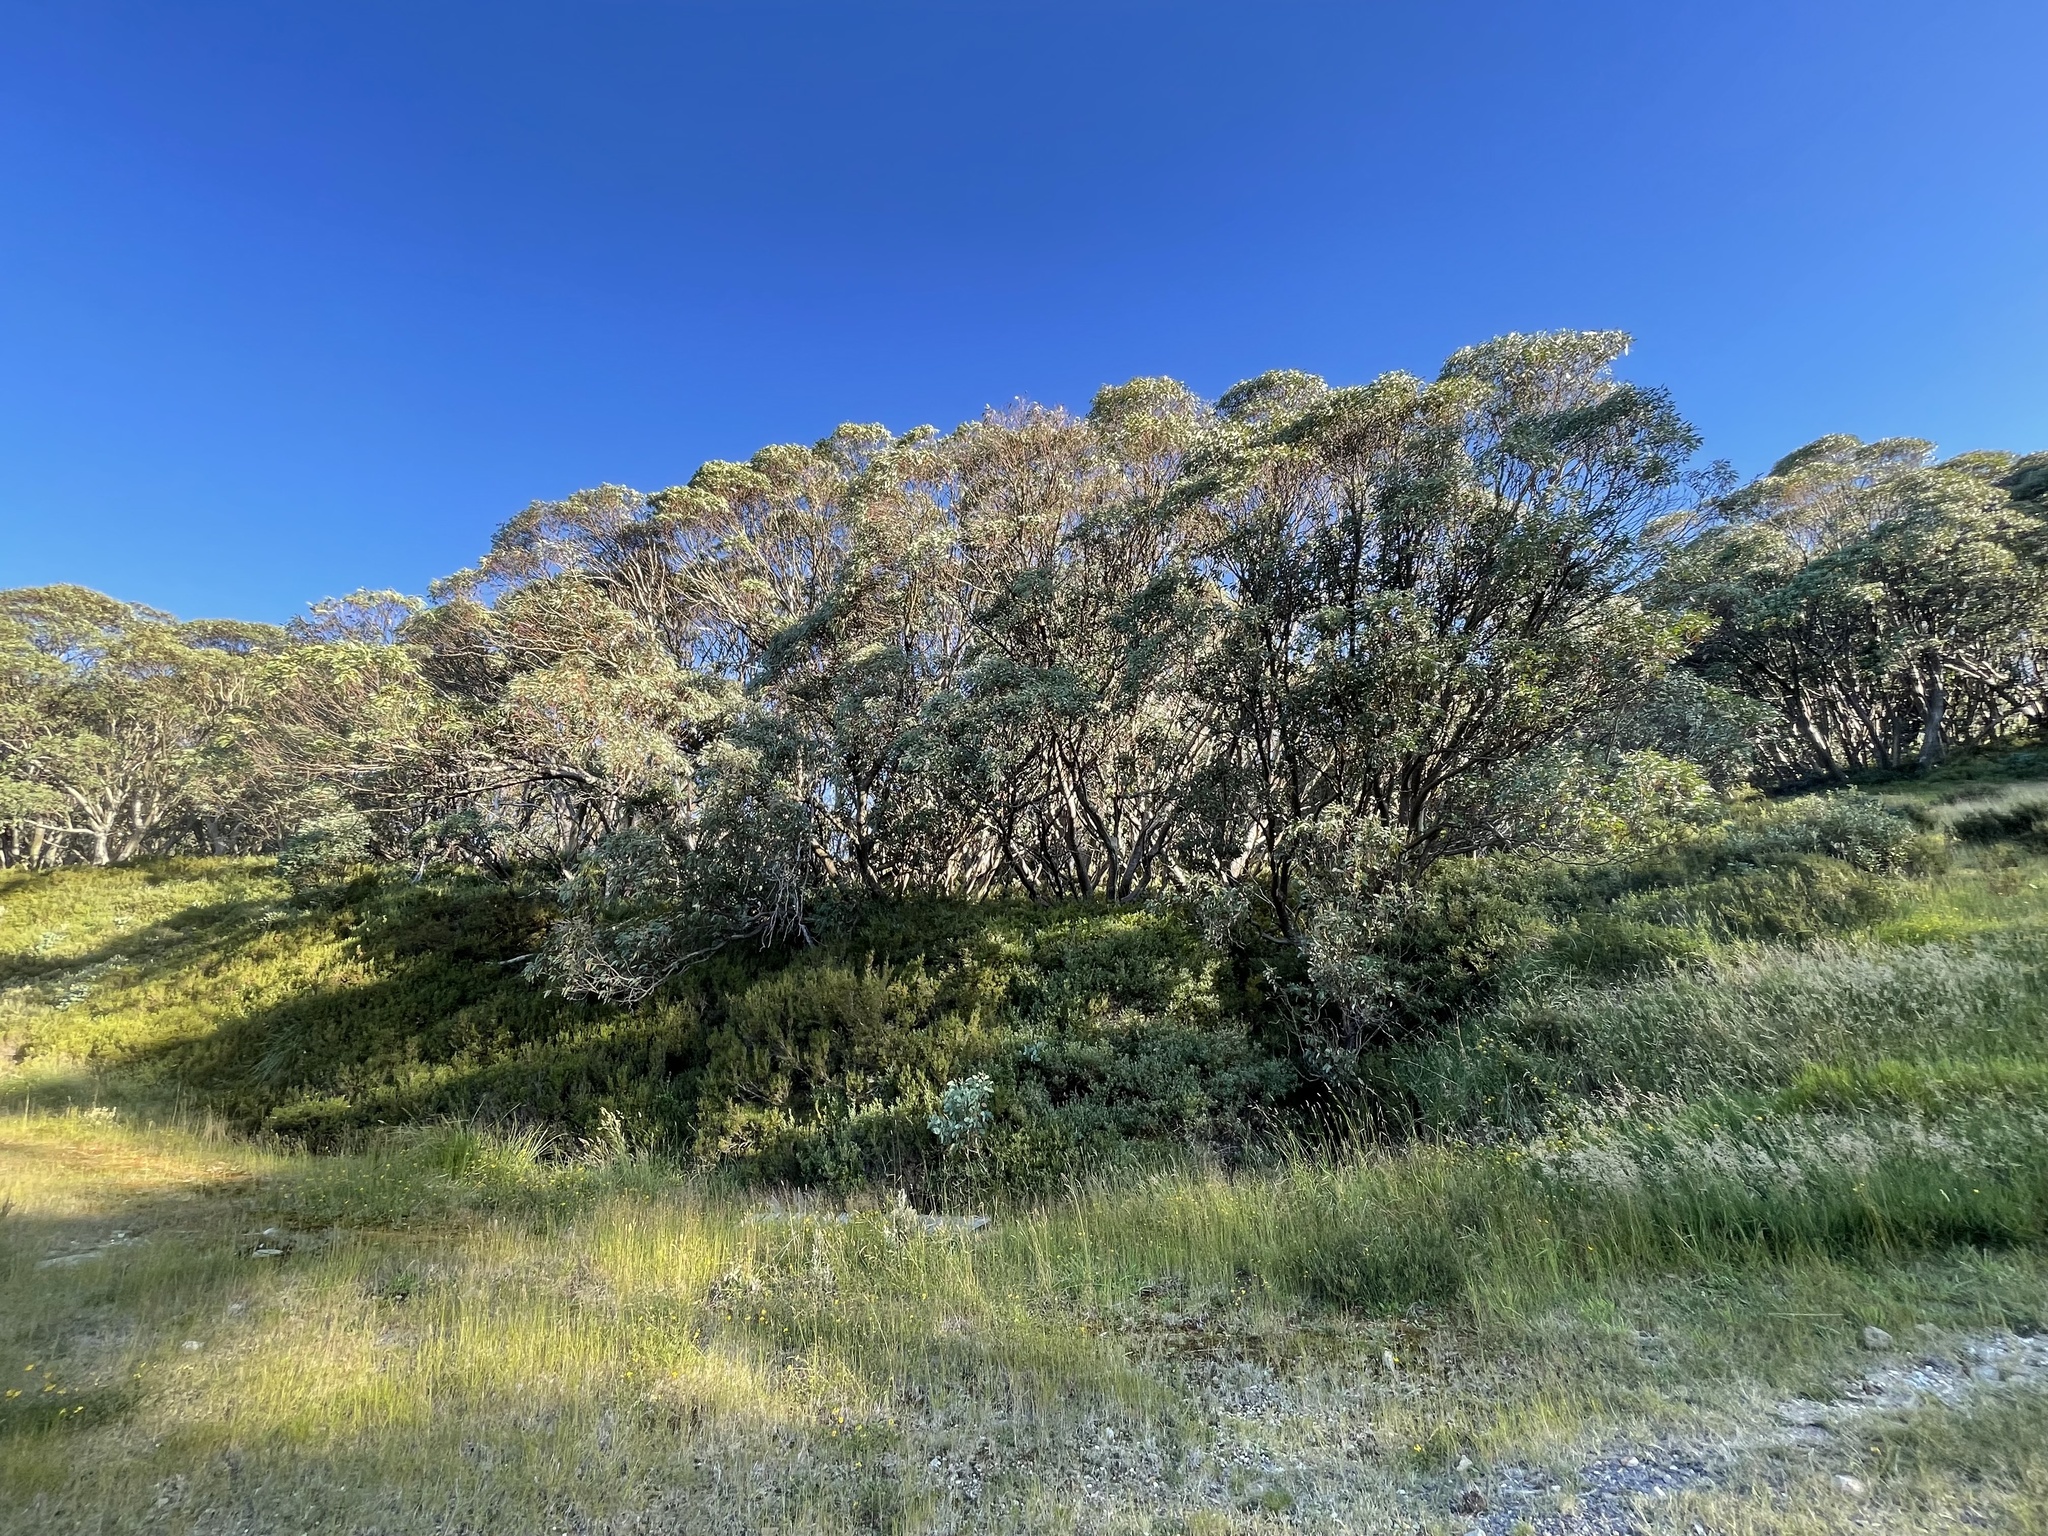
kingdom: Plantae
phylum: Tracheophyta
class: Magnoliopsida
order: Myrtales
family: Myrtaceae
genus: Eucalyptus
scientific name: Eucalyptus pauciflora
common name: Snow gum
